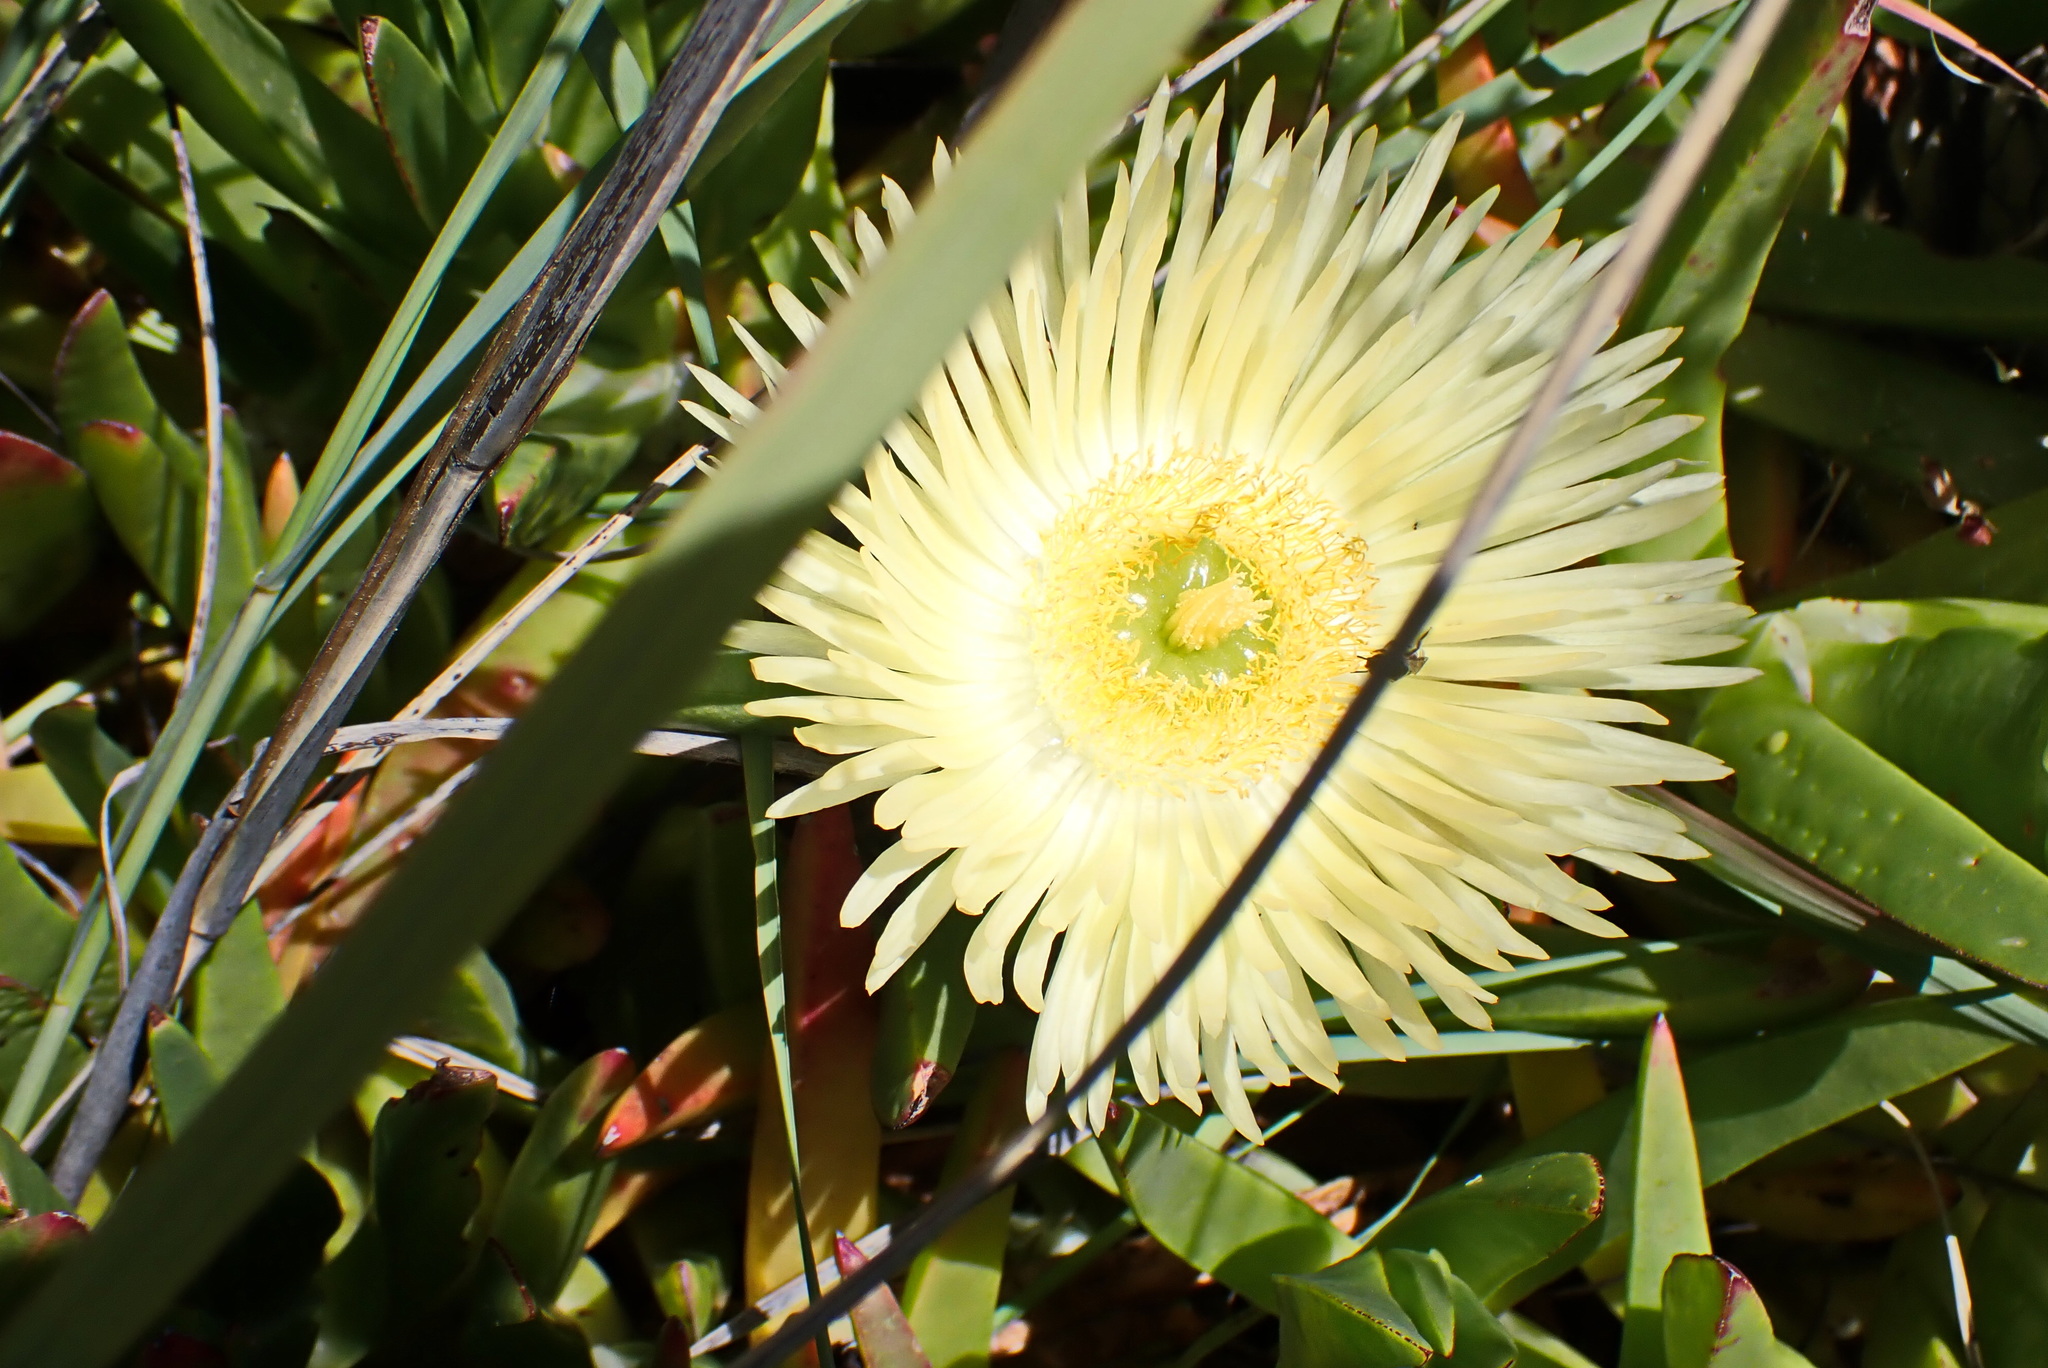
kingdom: Plantae
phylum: Tracheophyta
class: Magnoliopsida
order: Caryophyllales
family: Aizoaceae
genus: Carpobrotus
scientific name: Carpobrotus edulis
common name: Hottentot-fig
